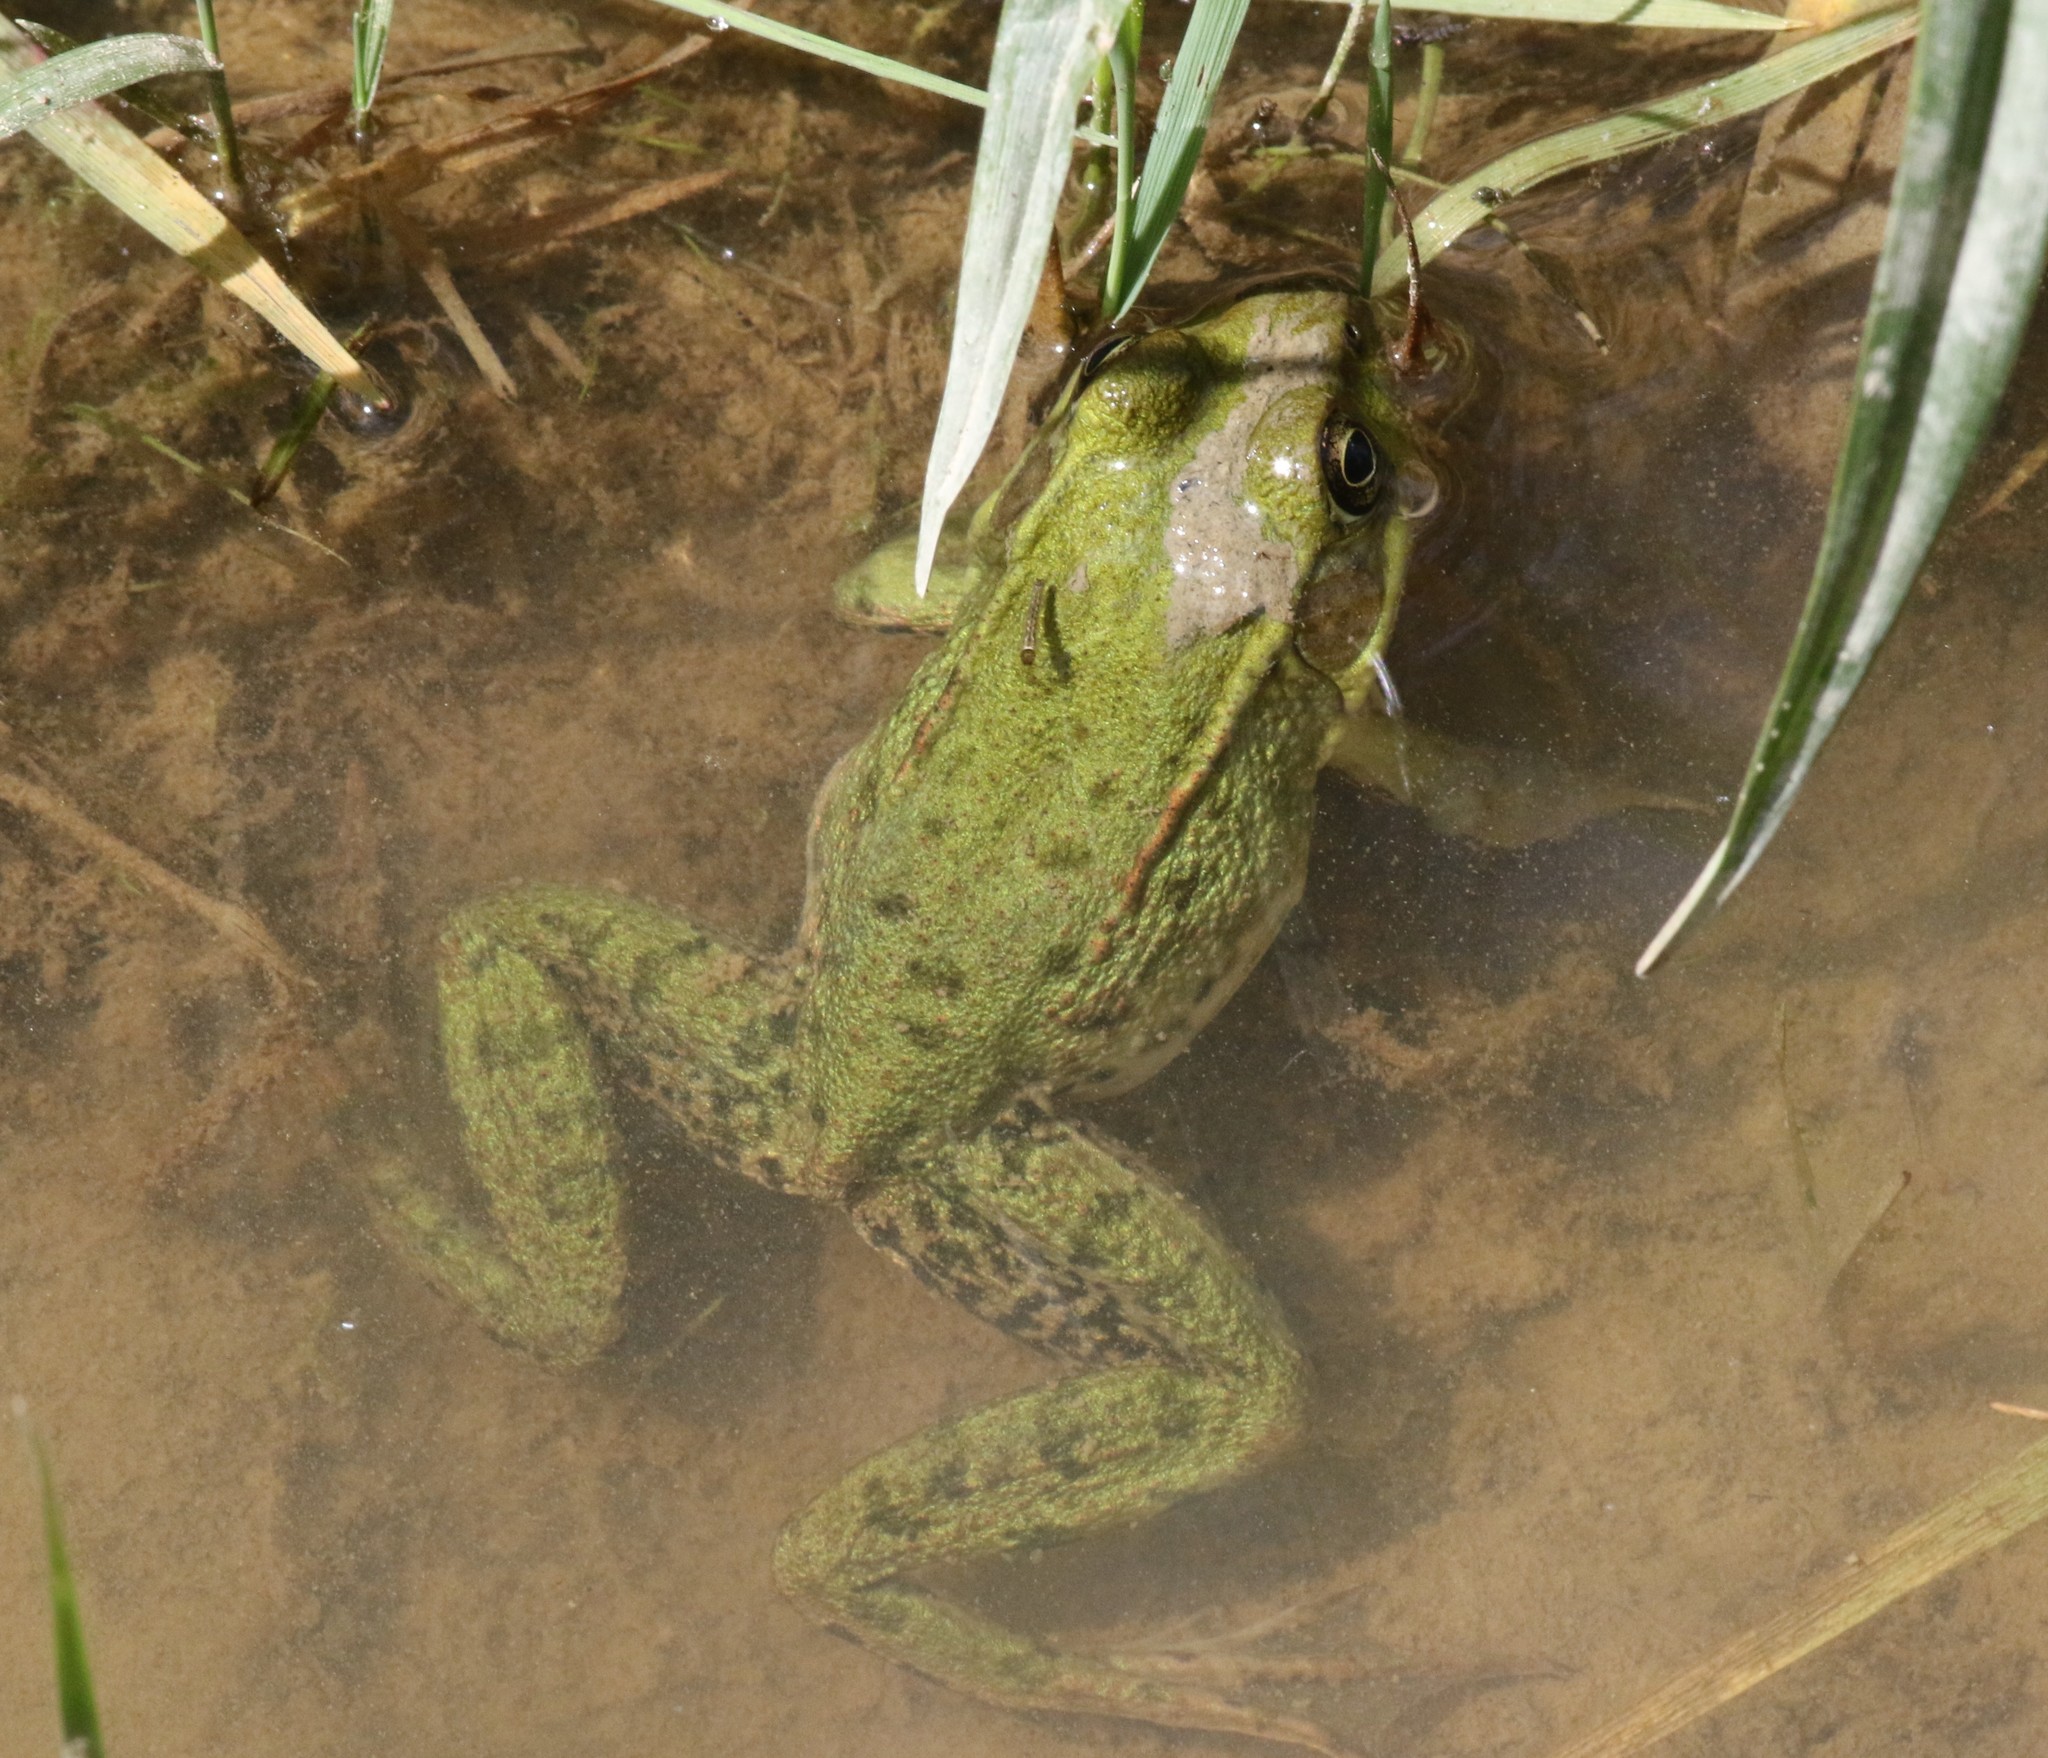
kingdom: Animalia
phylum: Chordata
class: Amphibia
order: Anura
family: Ranidae
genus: Lithobates
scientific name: Lithobates clamitans
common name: Green frog
